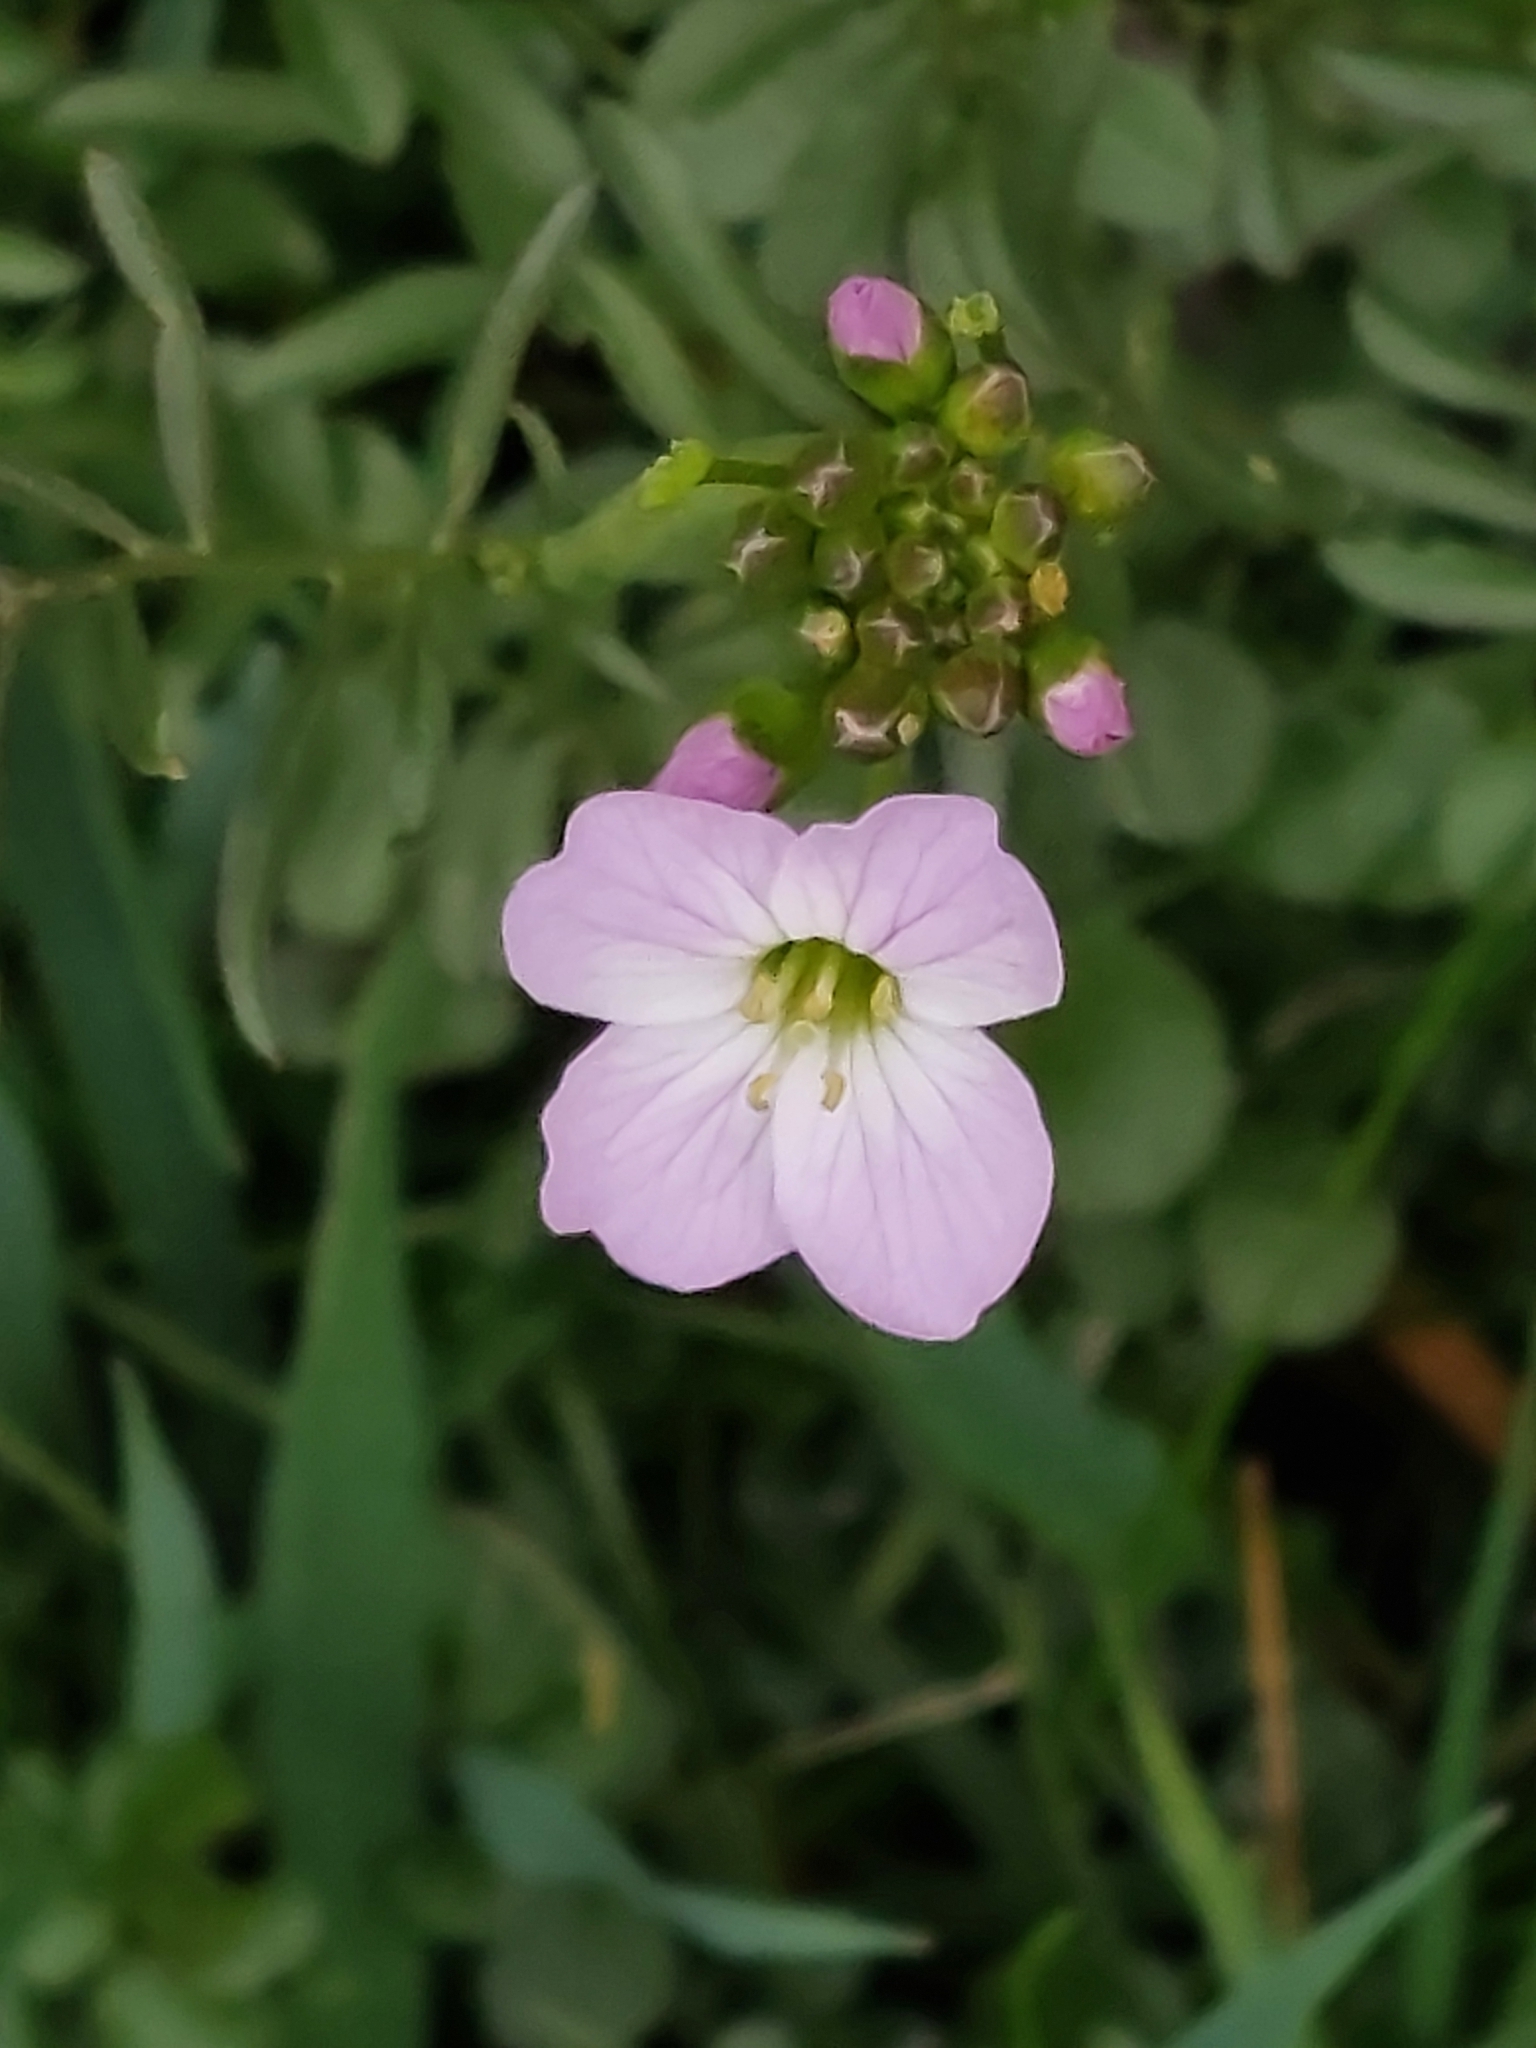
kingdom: Plantae
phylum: Tracheophyta
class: Magnoliopsida
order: Brassicales
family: Brassicaceae
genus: Cardamine
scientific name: Cardamine pratensis
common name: Cuckoo flower
